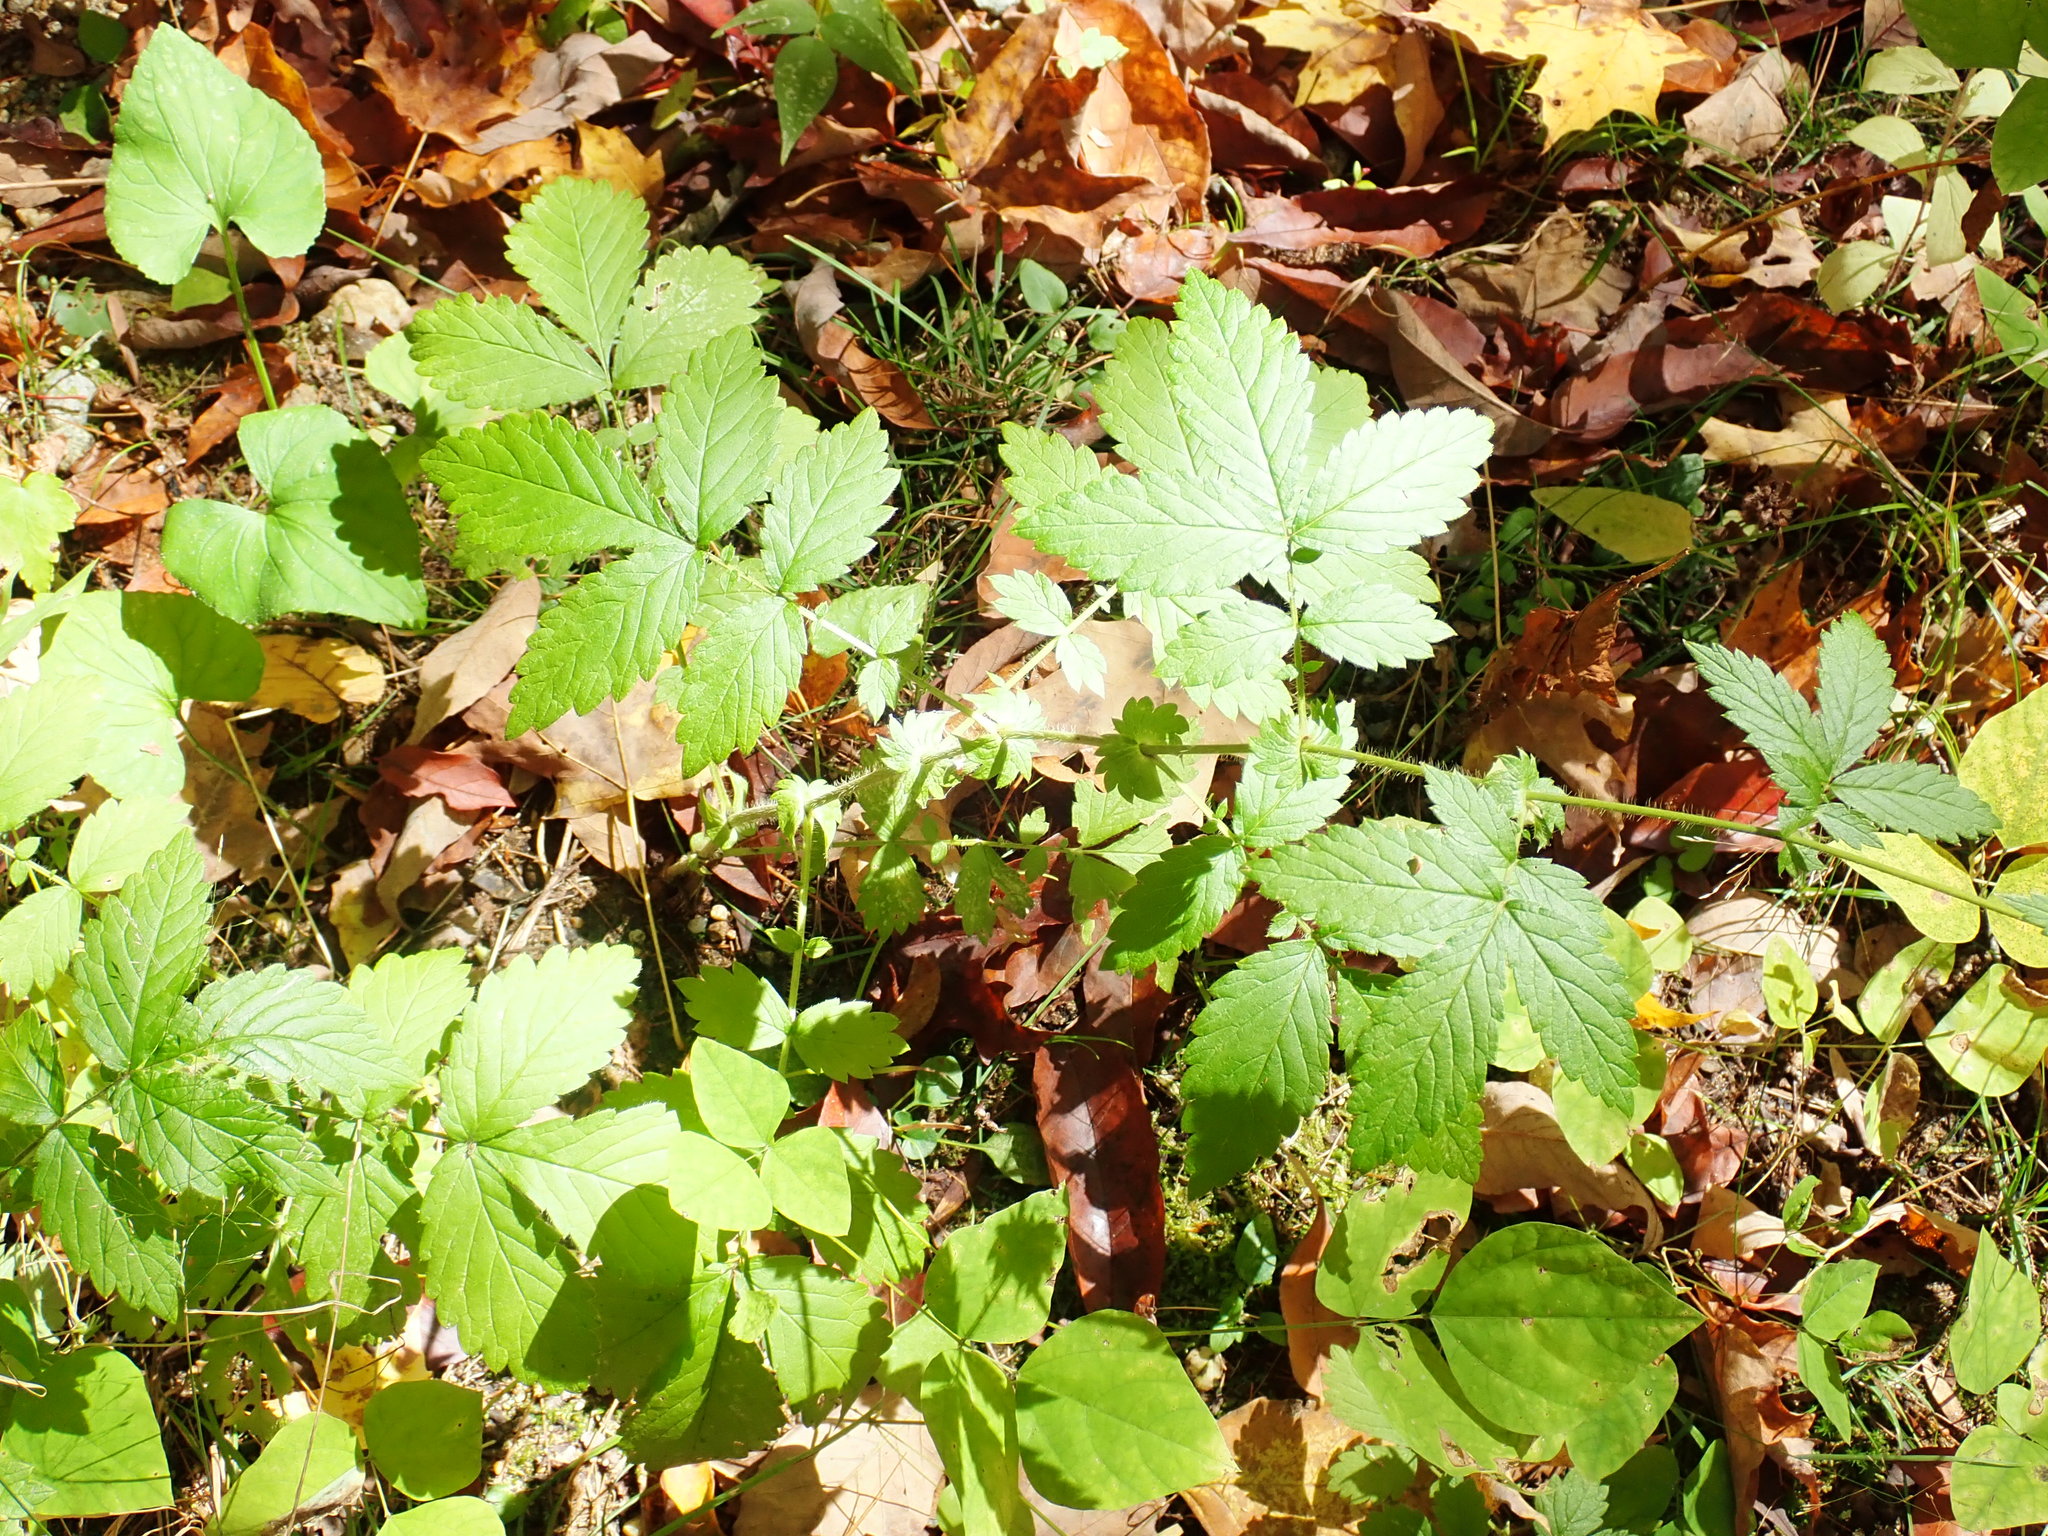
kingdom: Plantae
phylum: Tracheophyta
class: Magnoliopsida
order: Rosales
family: Rosaceae
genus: Agrimonia
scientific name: Agrimonia
